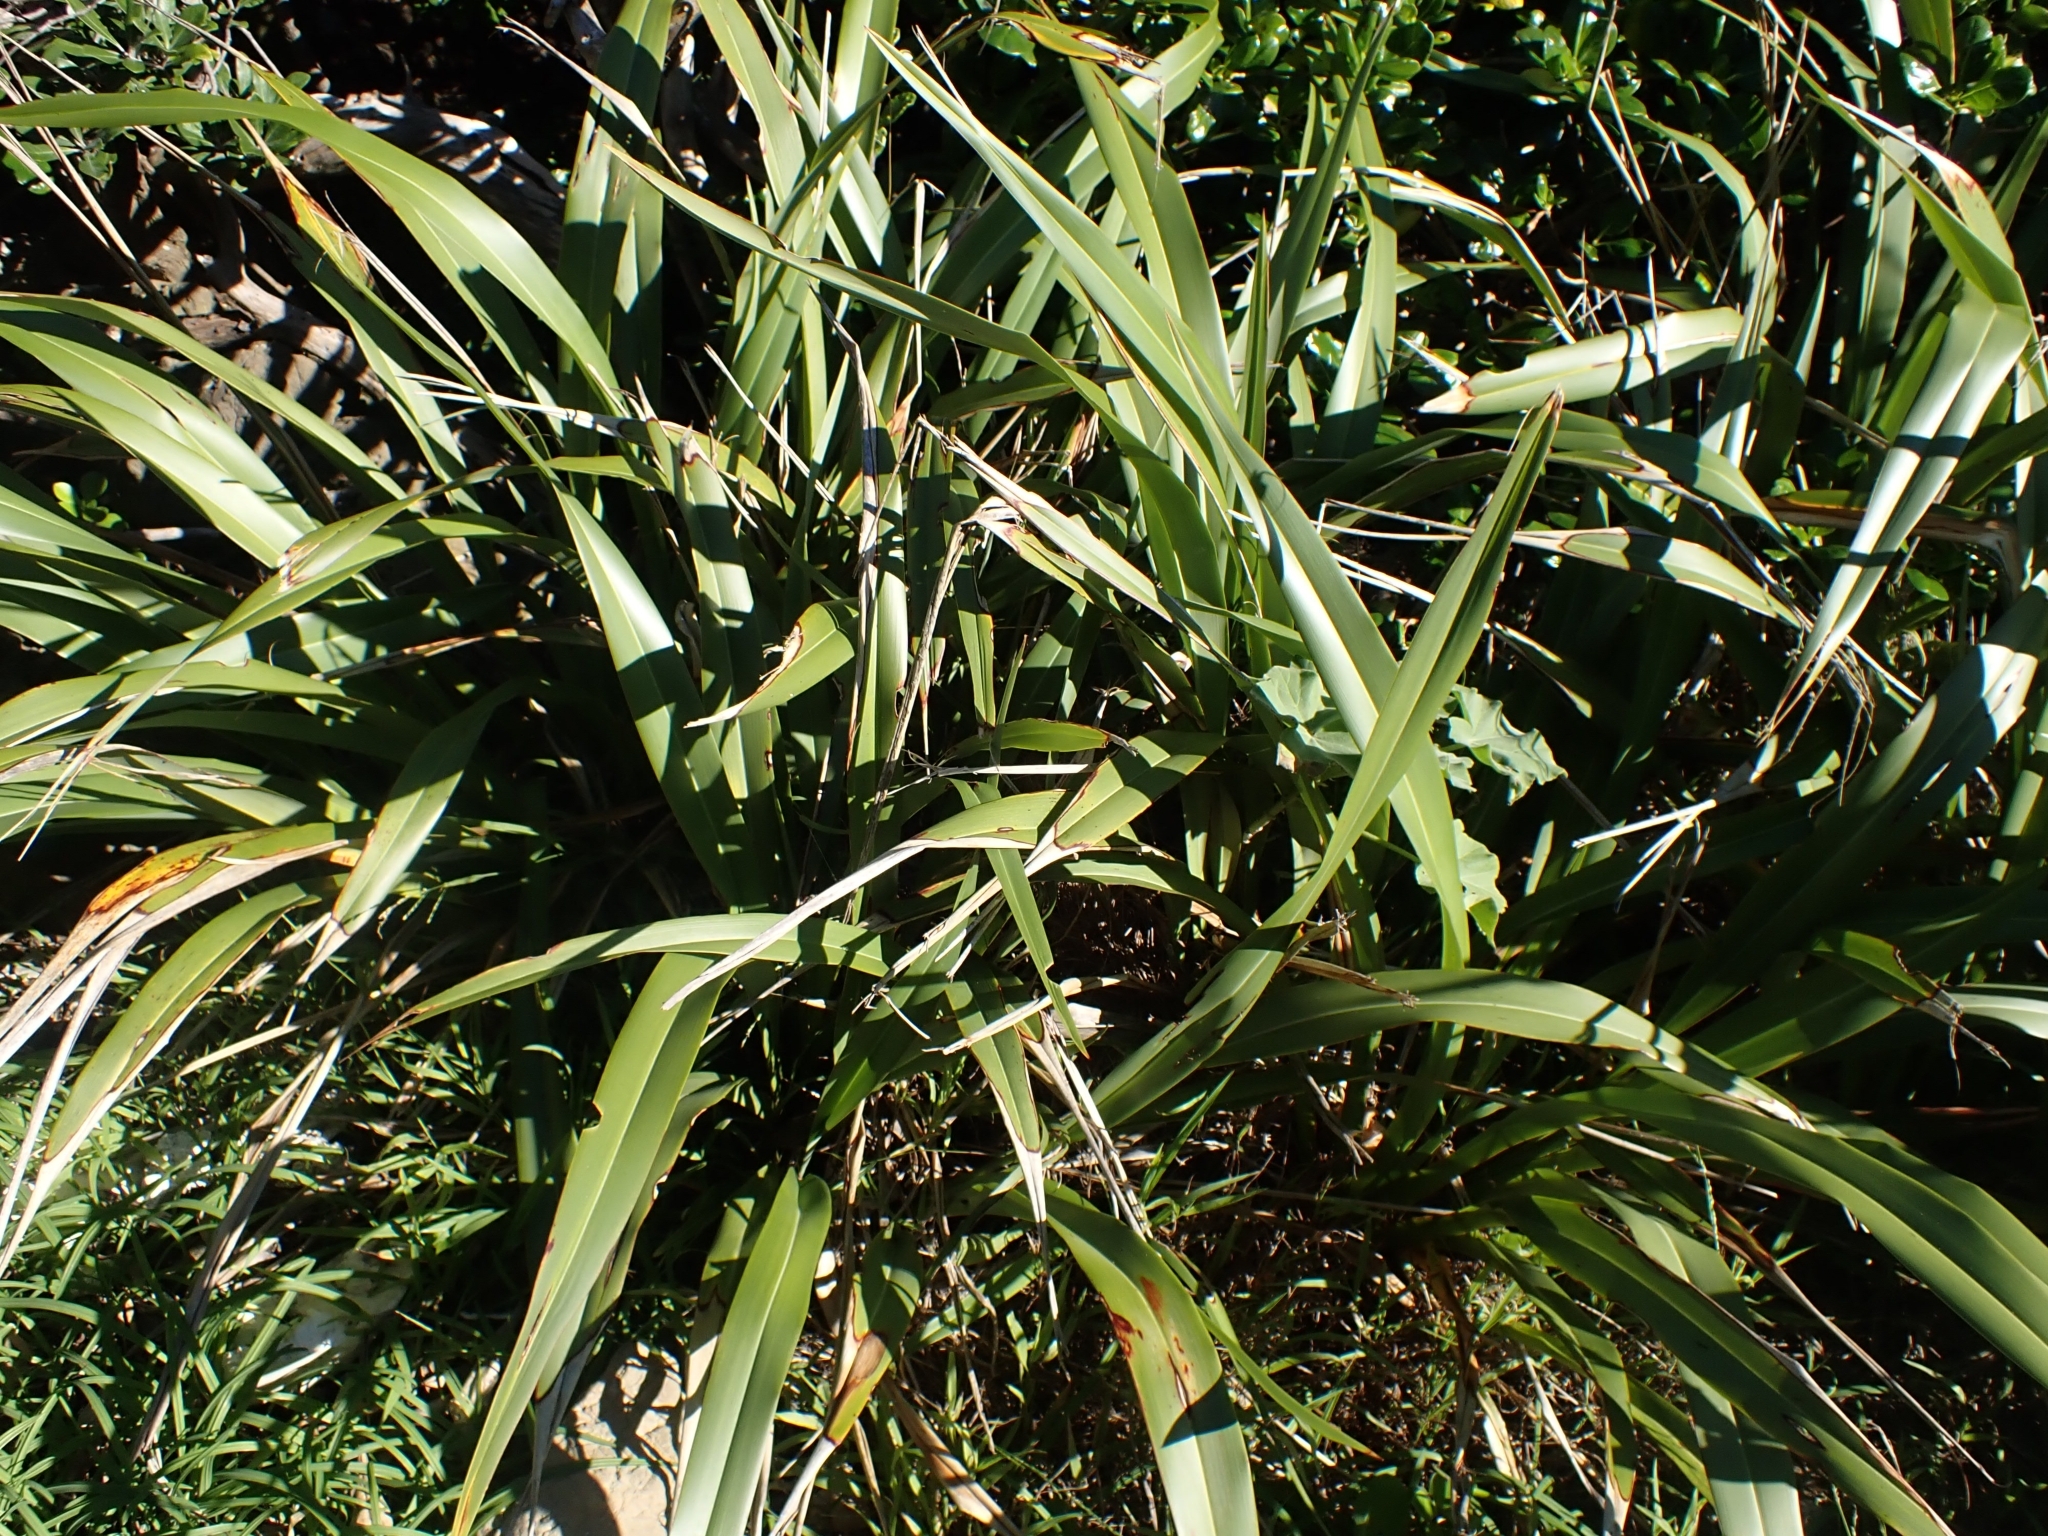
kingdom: Plantae
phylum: Tracheophyta
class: Liliopsida
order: Asparagales
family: Asphodelaceae
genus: Phormium
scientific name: Phormium tenax
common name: New zealand flax
